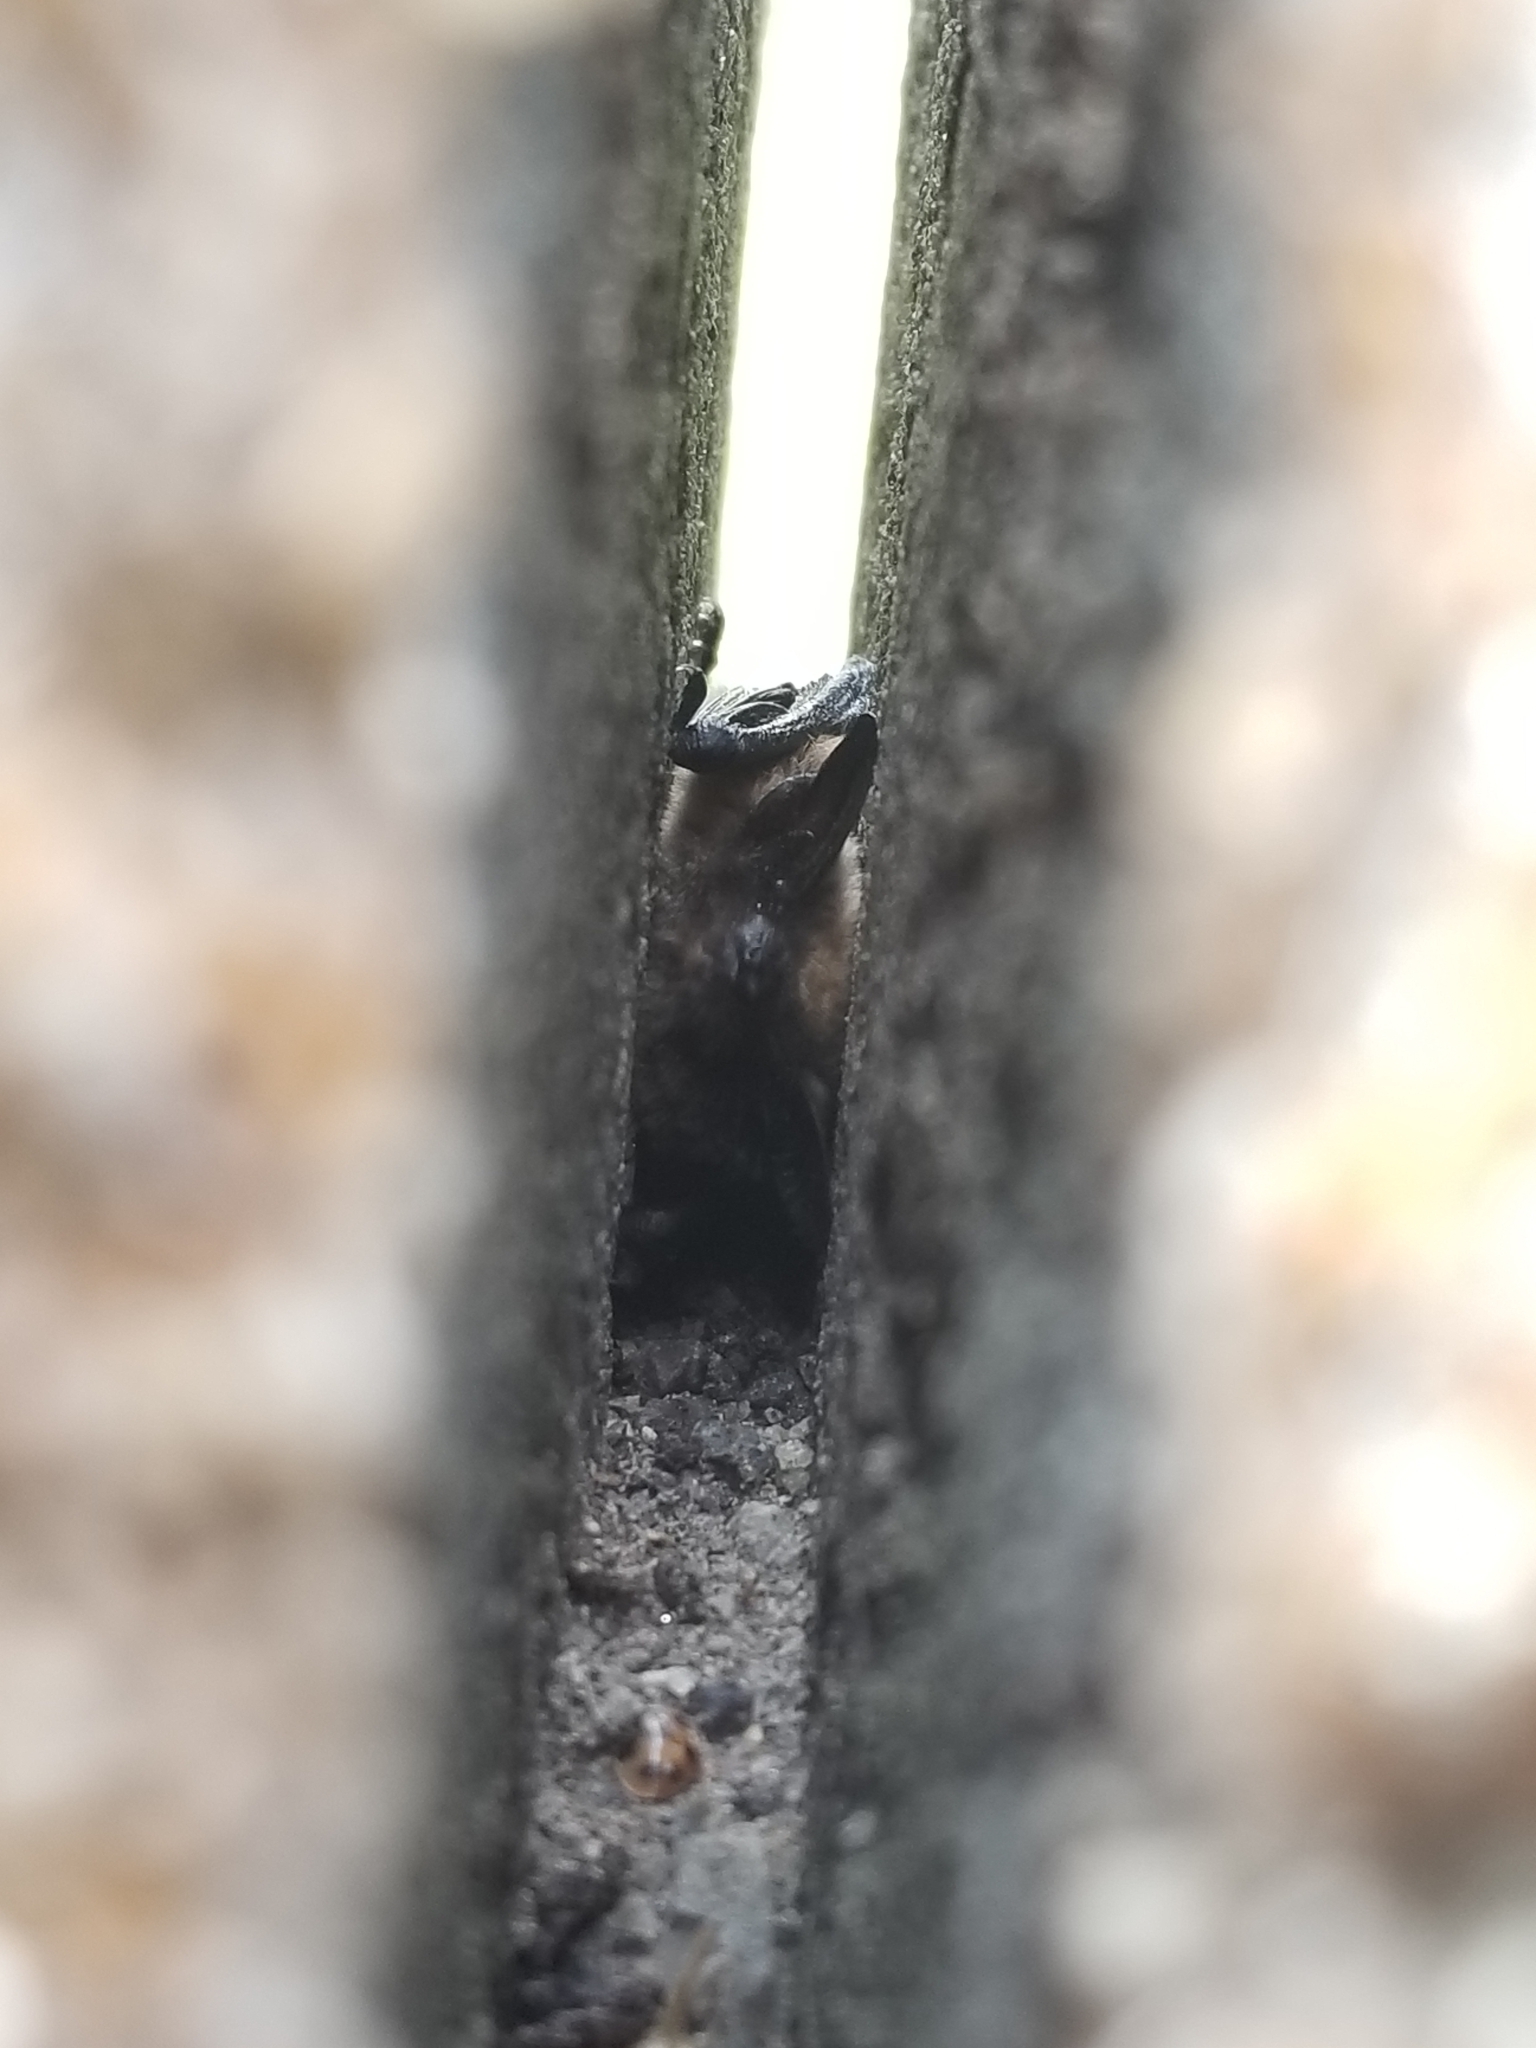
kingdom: Animalia
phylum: Chordata
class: Mammalia
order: Chiroptera
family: Vespertilionidae
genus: Myotis
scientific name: Myotis leibii
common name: Eastern small-footed myotis
